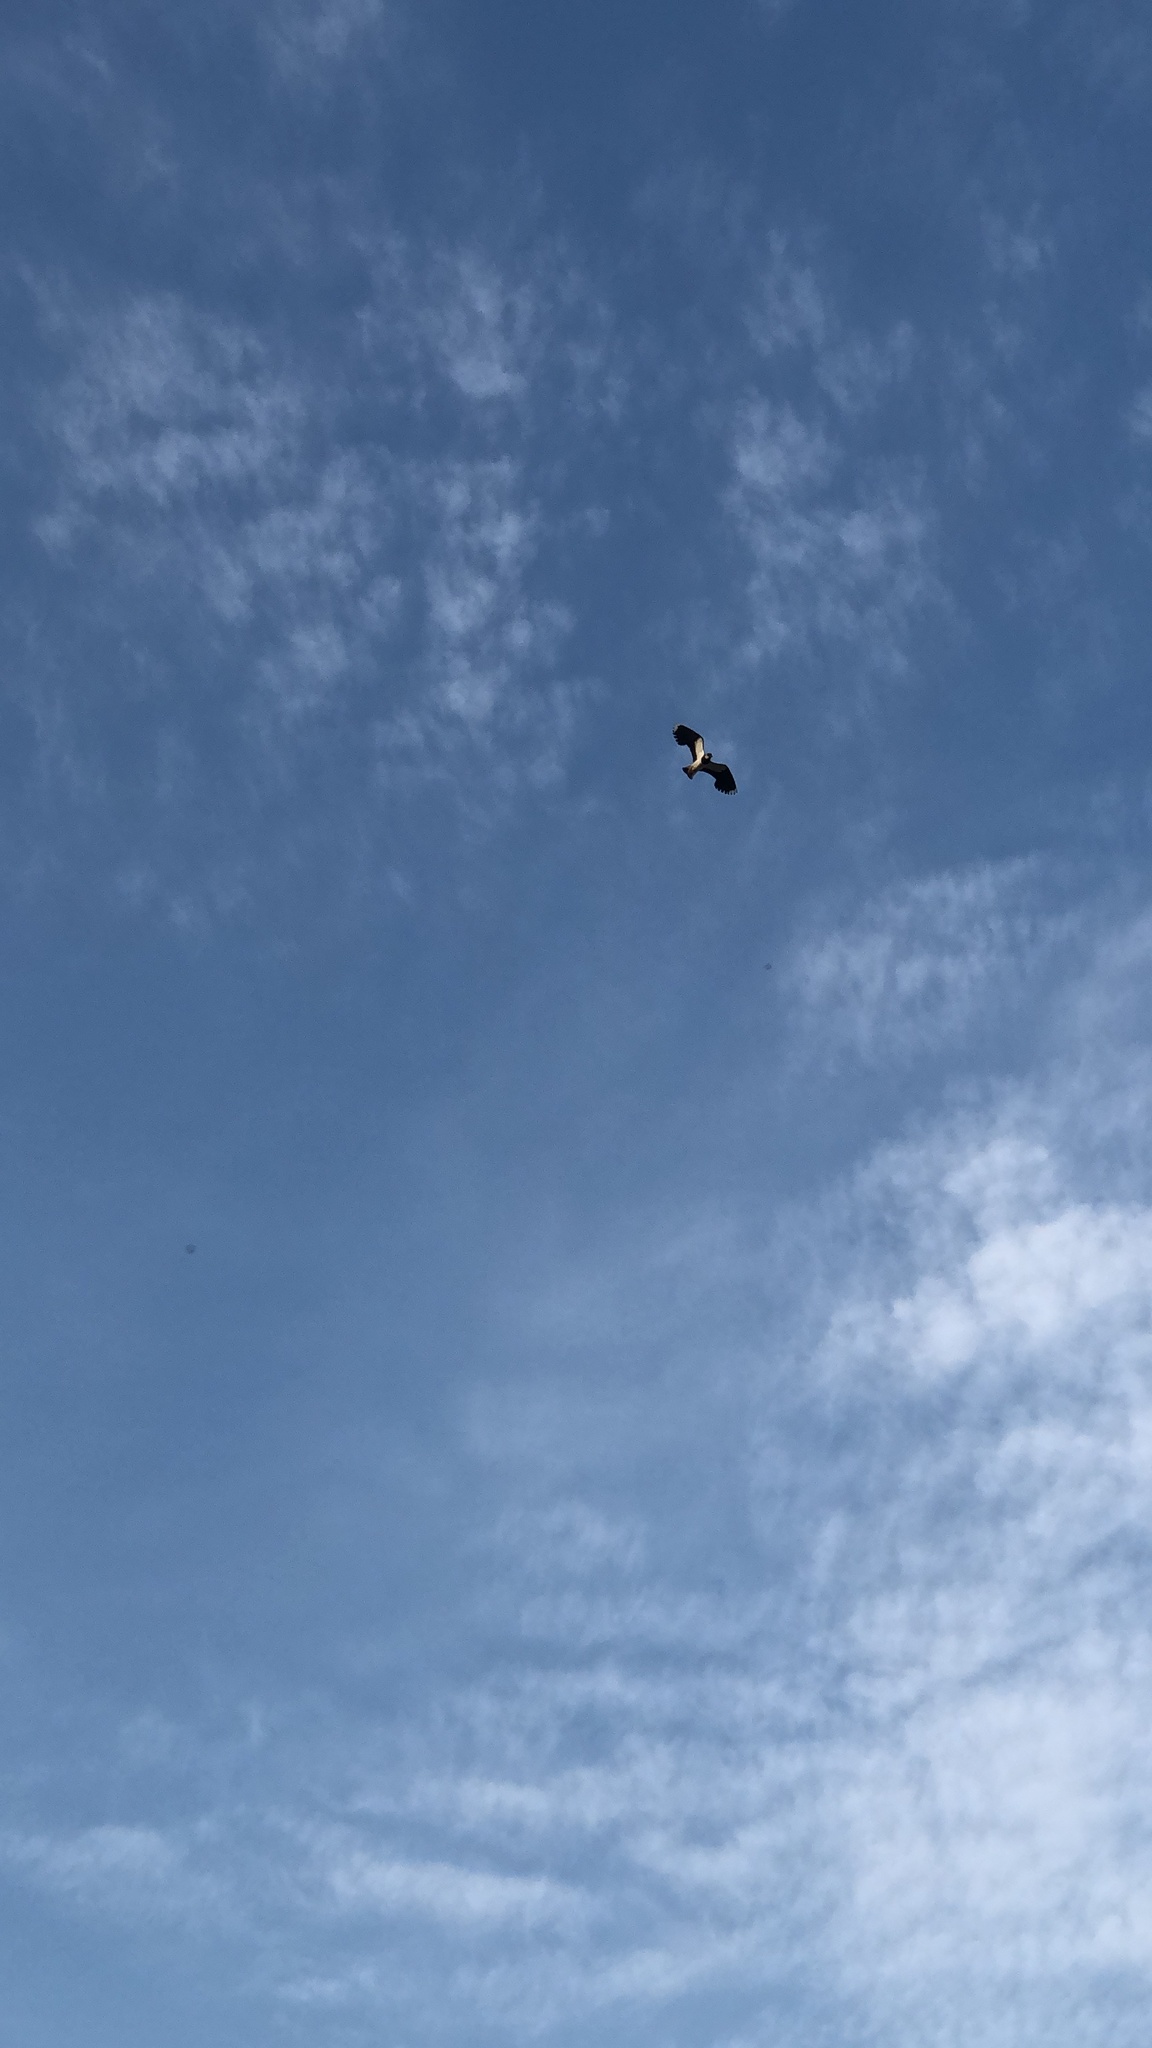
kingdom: Animalia
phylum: Chordata
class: Aves
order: Charadriiformes
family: Charadriidae
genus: Vanellus
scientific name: Vanellus vanellus
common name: Northern lapwing
